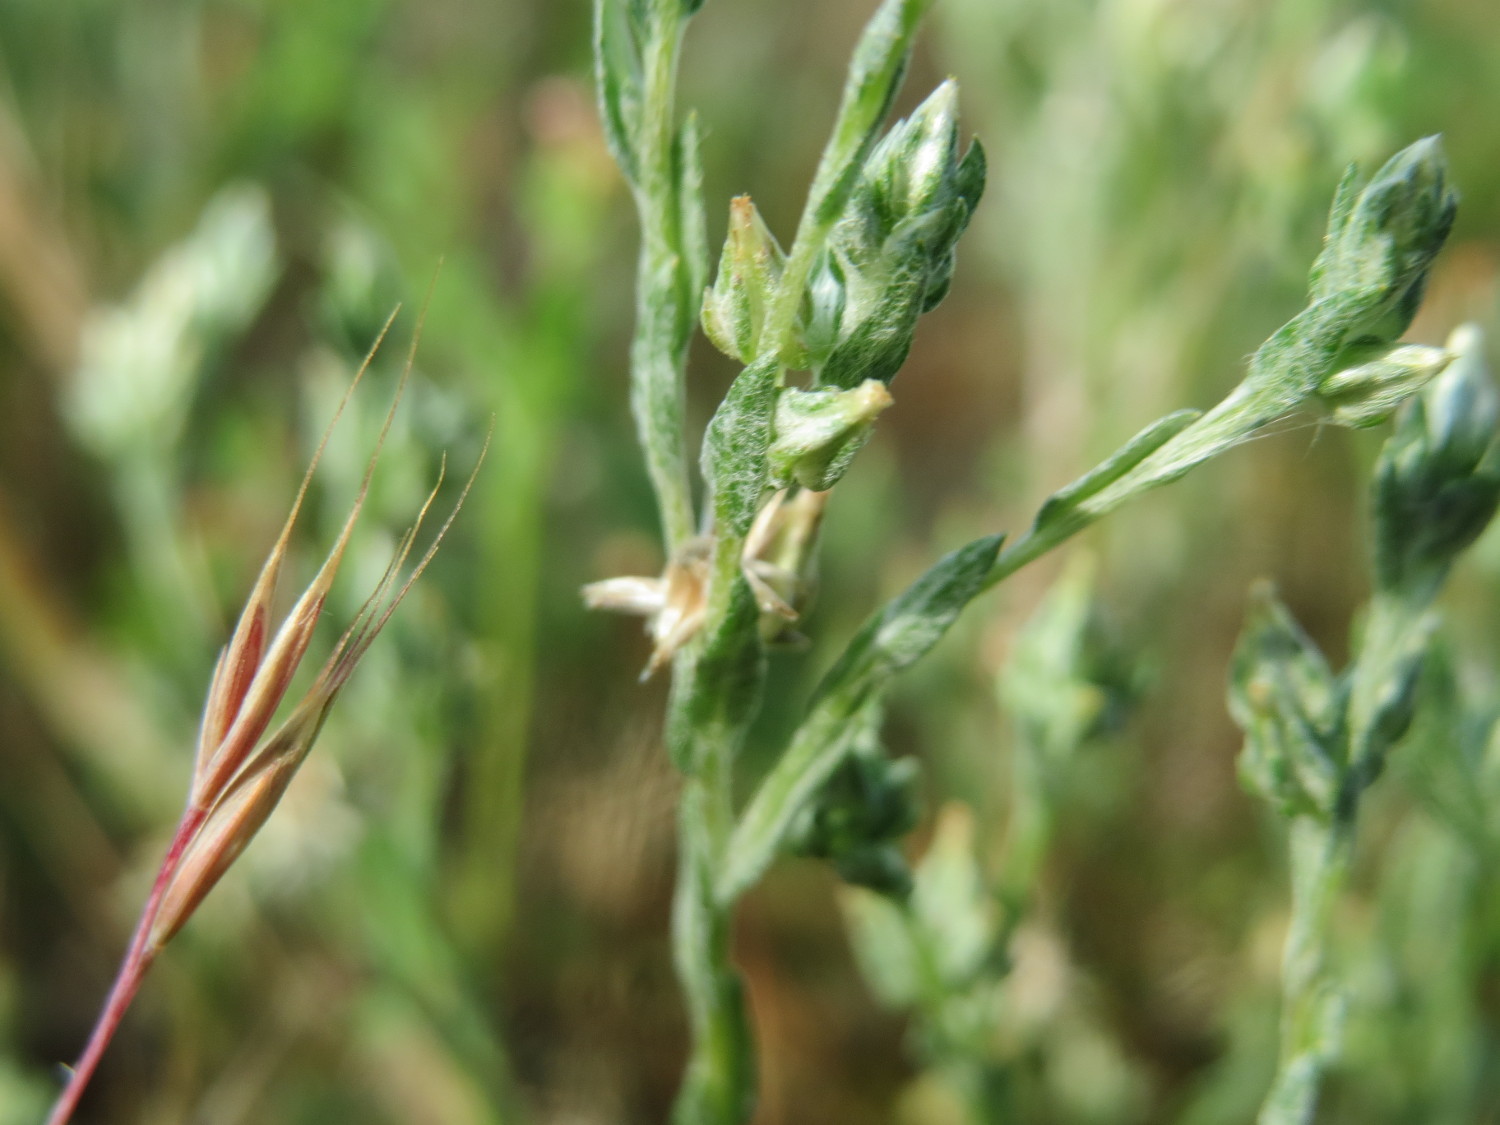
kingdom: Plantae
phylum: Tracheophyta
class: Magnoliopsida
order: Asterales
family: Asteraceae
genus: Logfia
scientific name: Logfia minima
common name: Little cottonrose
